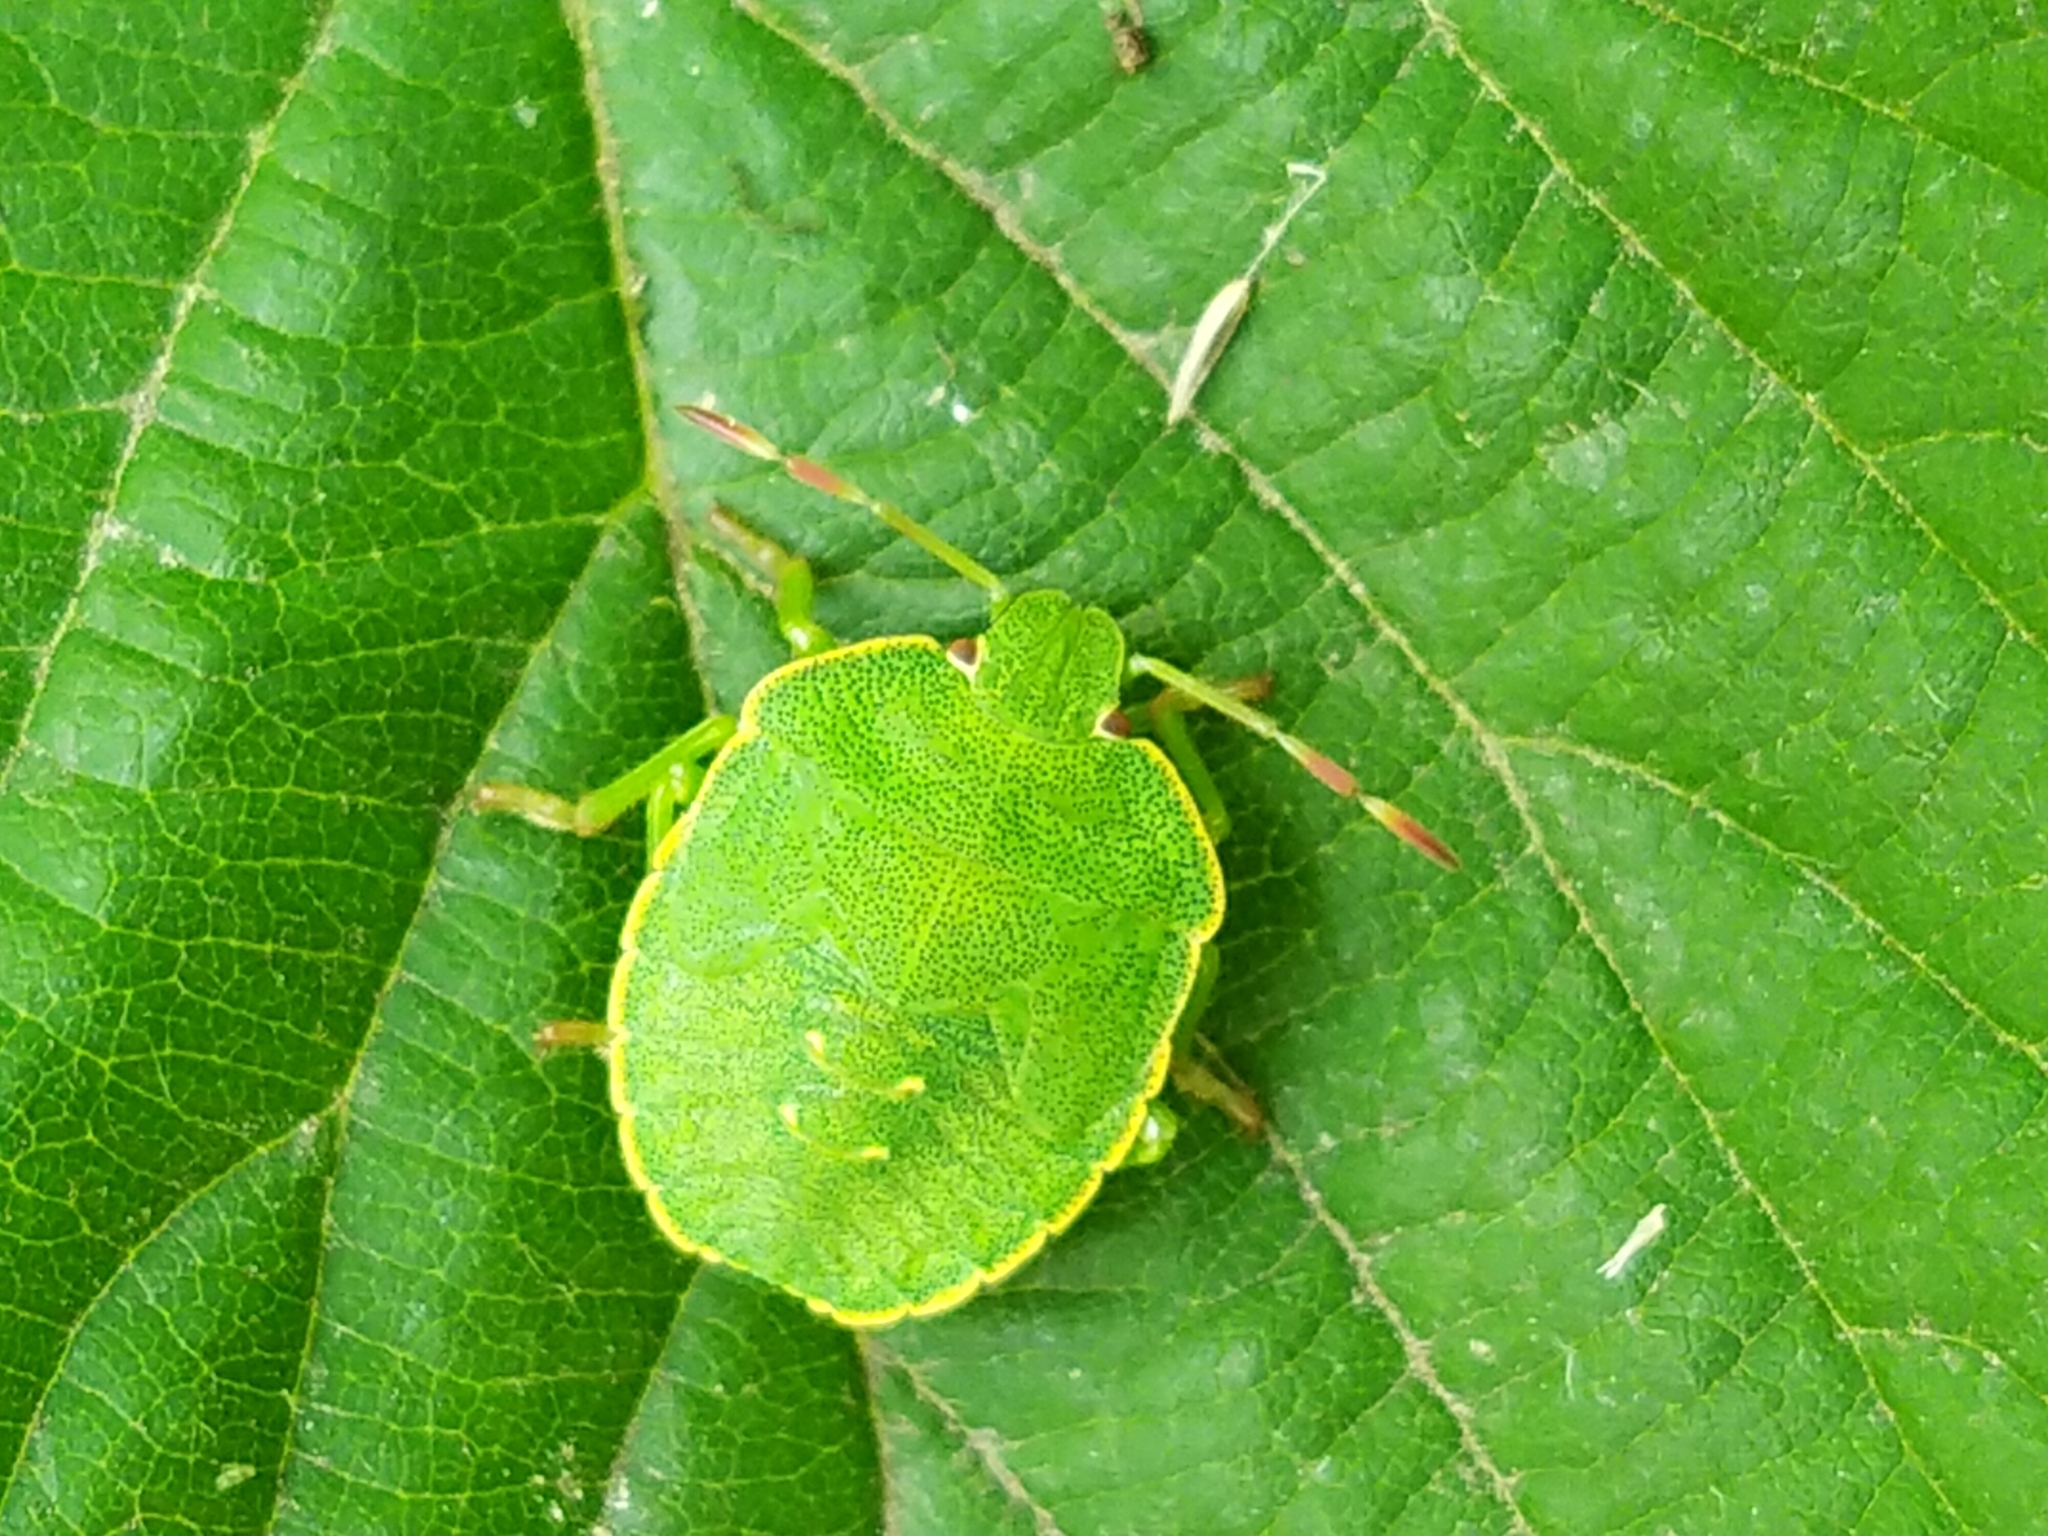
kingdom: Animalia
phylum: Arthropoda
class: Insecta
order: Hemiptera
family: Pentatomidae
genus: Palomena
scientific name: Palomena prasina
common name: Green shieldbug
